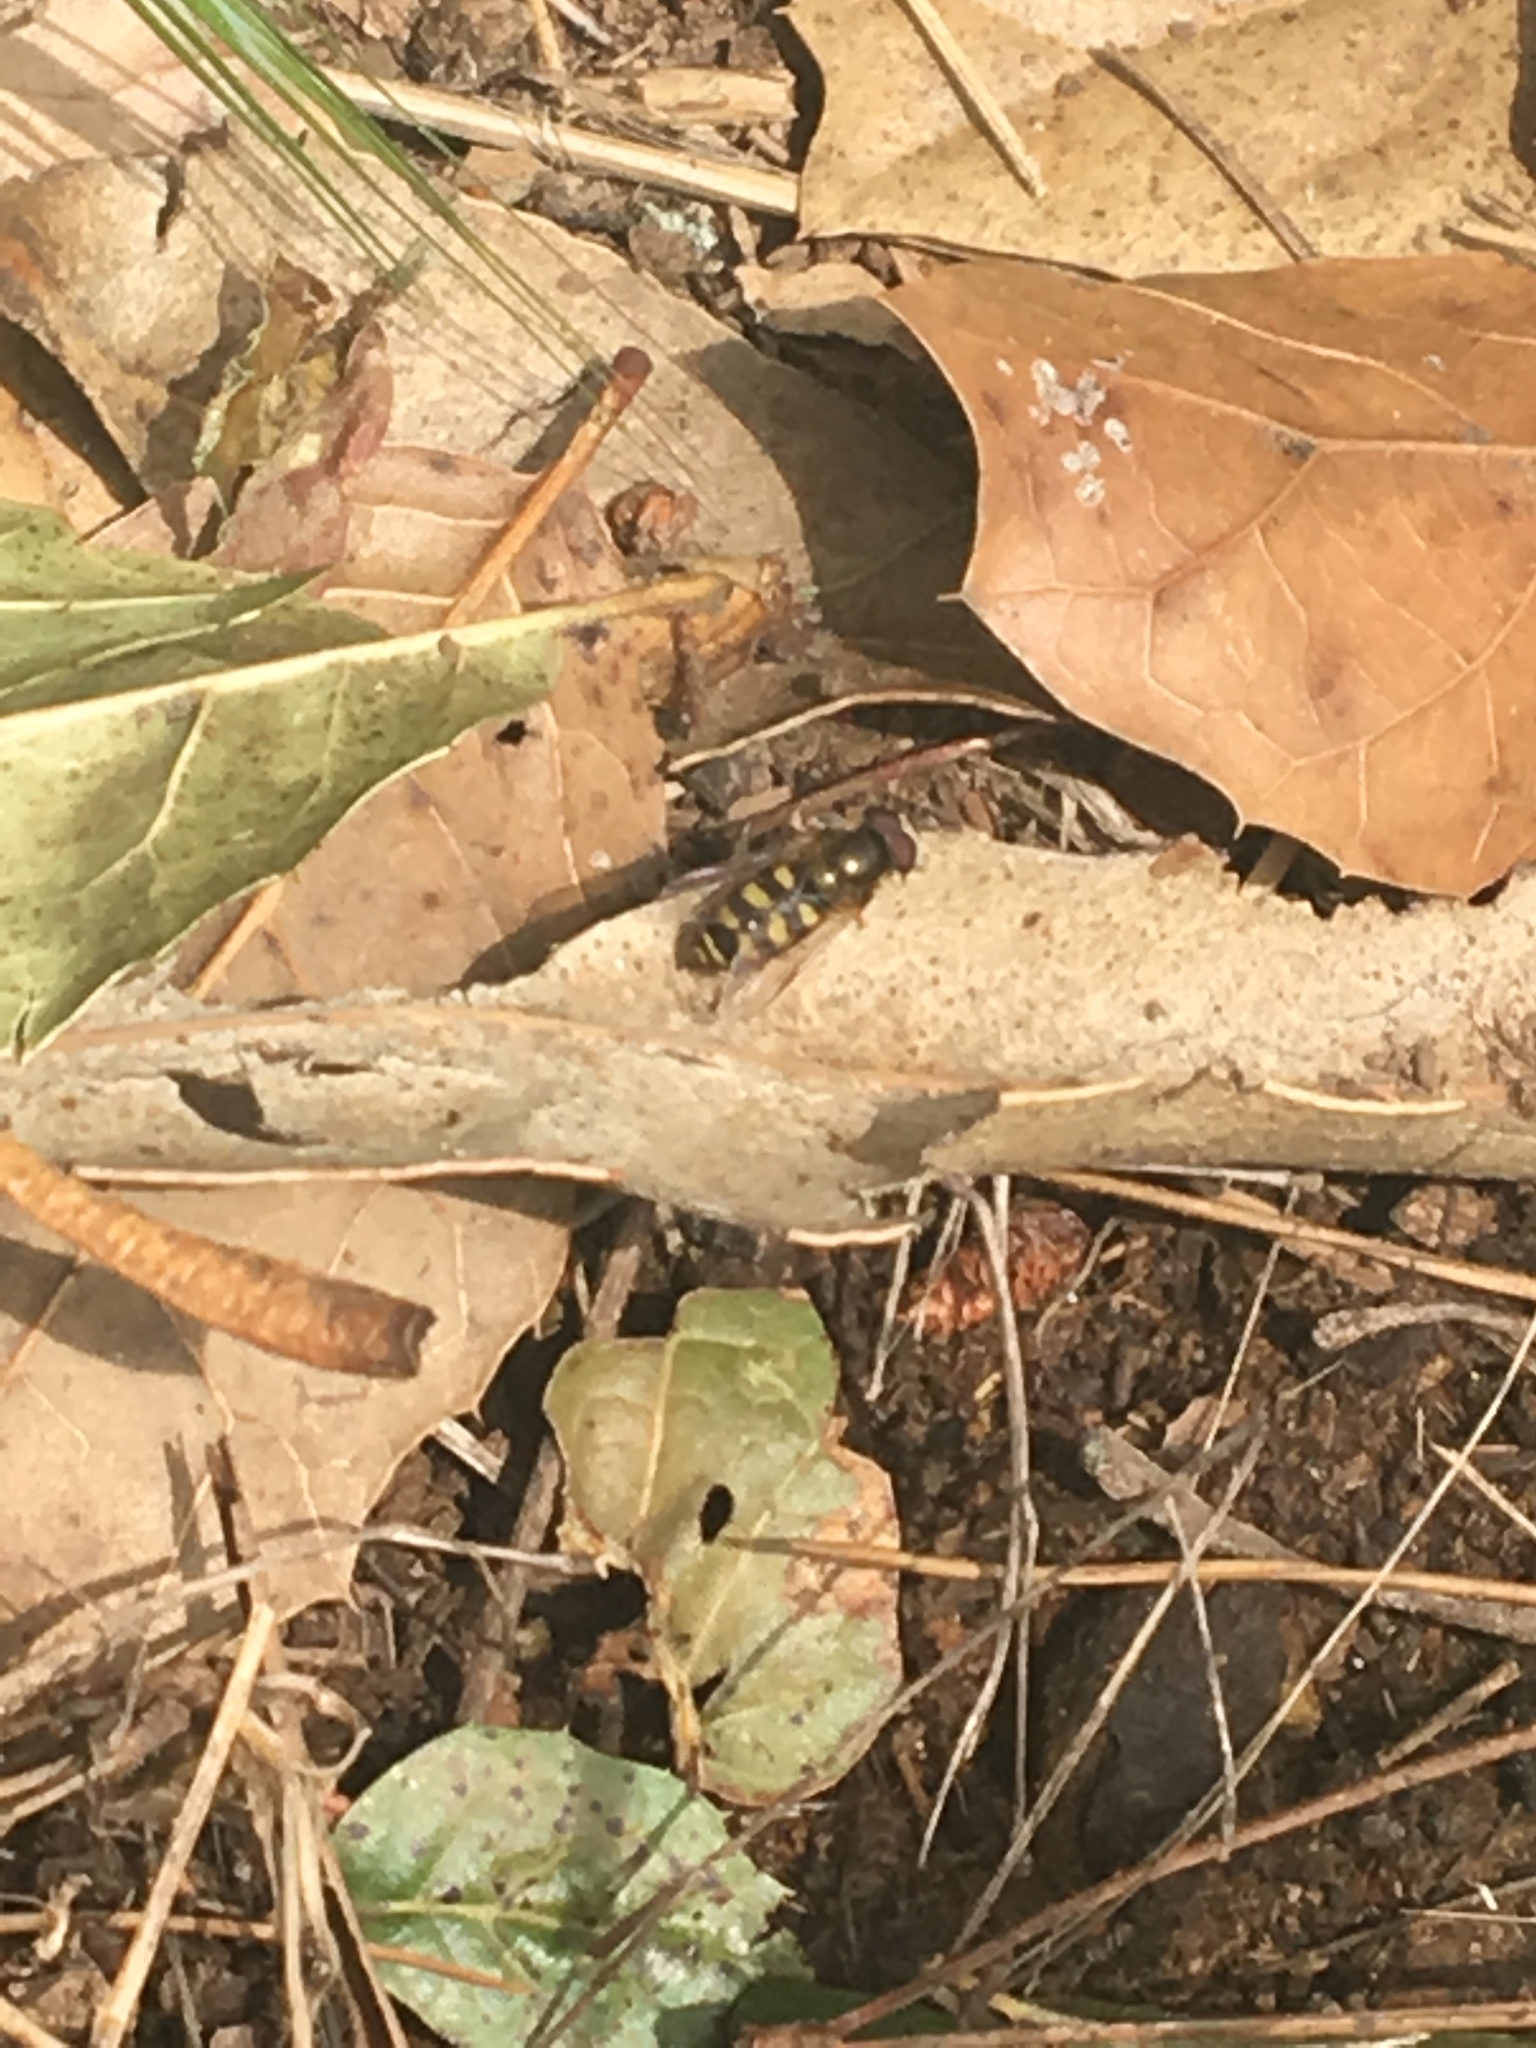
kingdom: Animalia
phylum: Arthropoda
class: Insecta
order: Diptera
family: Syrphidae
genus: Eupeodes
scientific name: Eupeodes fumipennis
